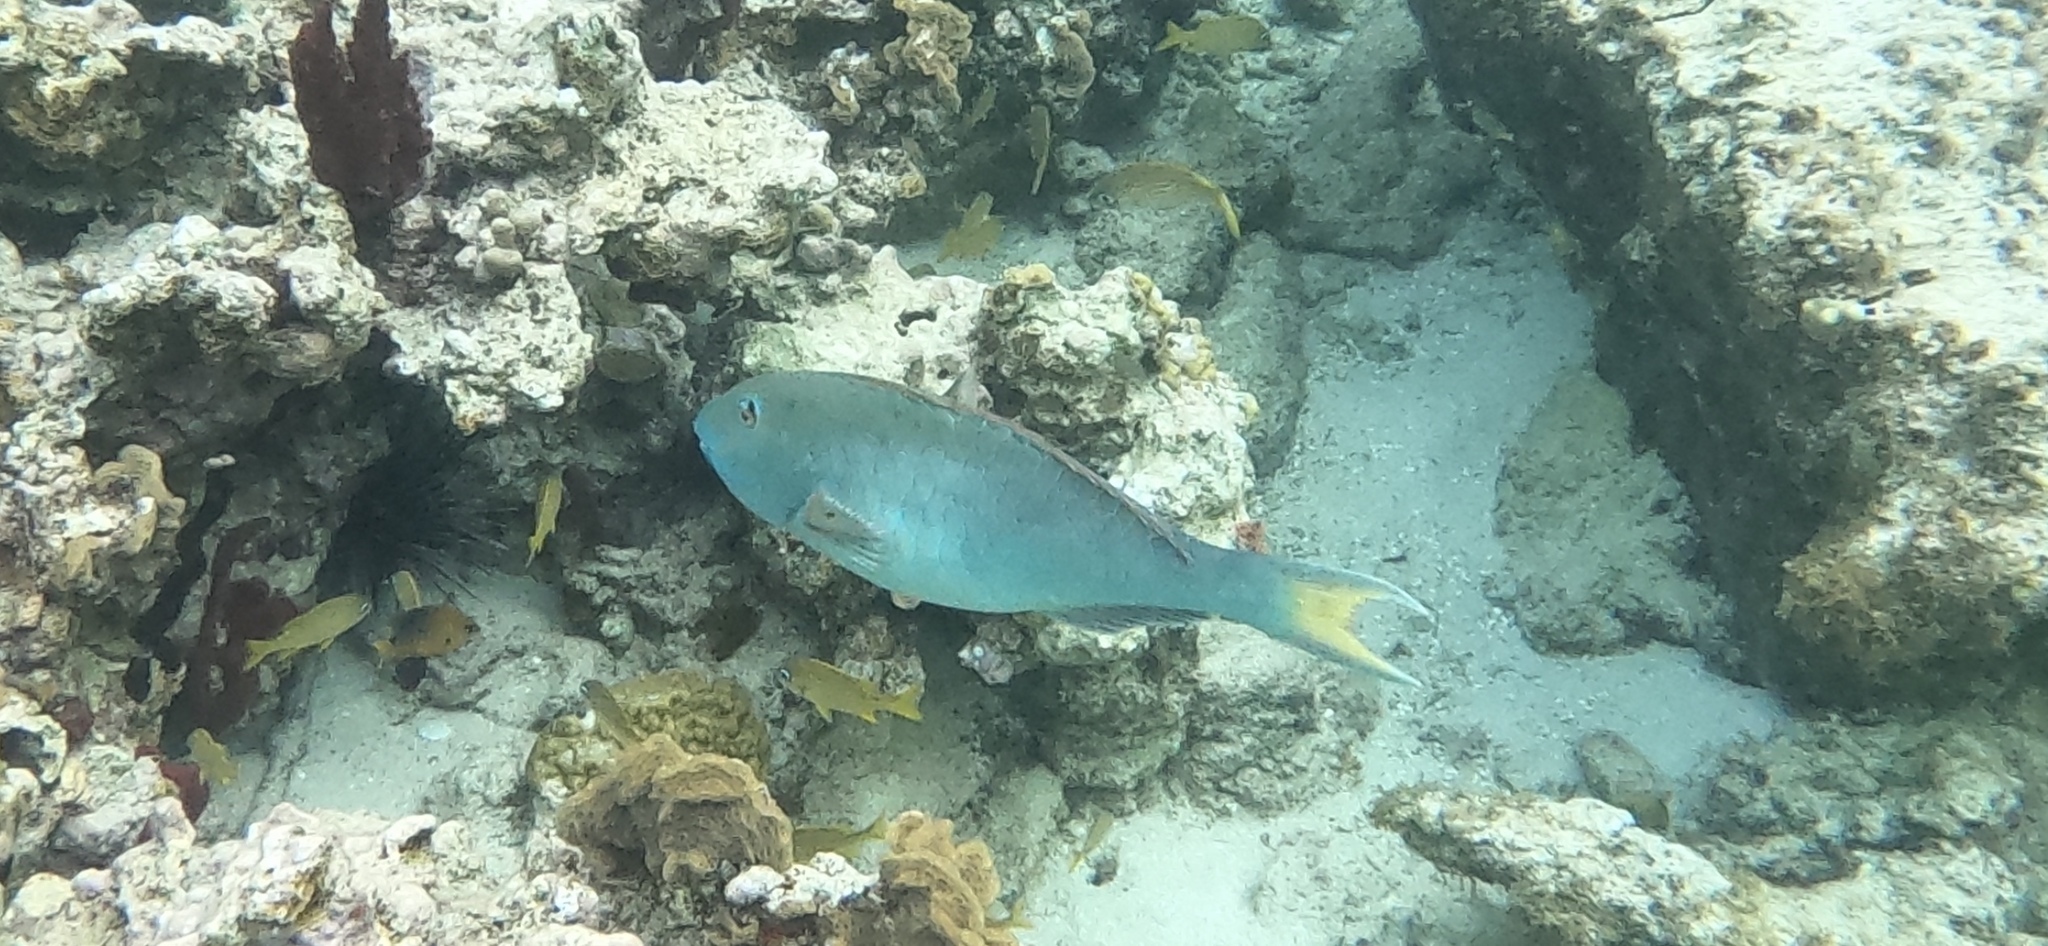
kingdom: Animalia
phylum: Chordata
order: Perciformes
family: Scaridae
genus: Sparisoma
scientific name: Sparisoma rubripinne
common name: Redfin parrotfish
